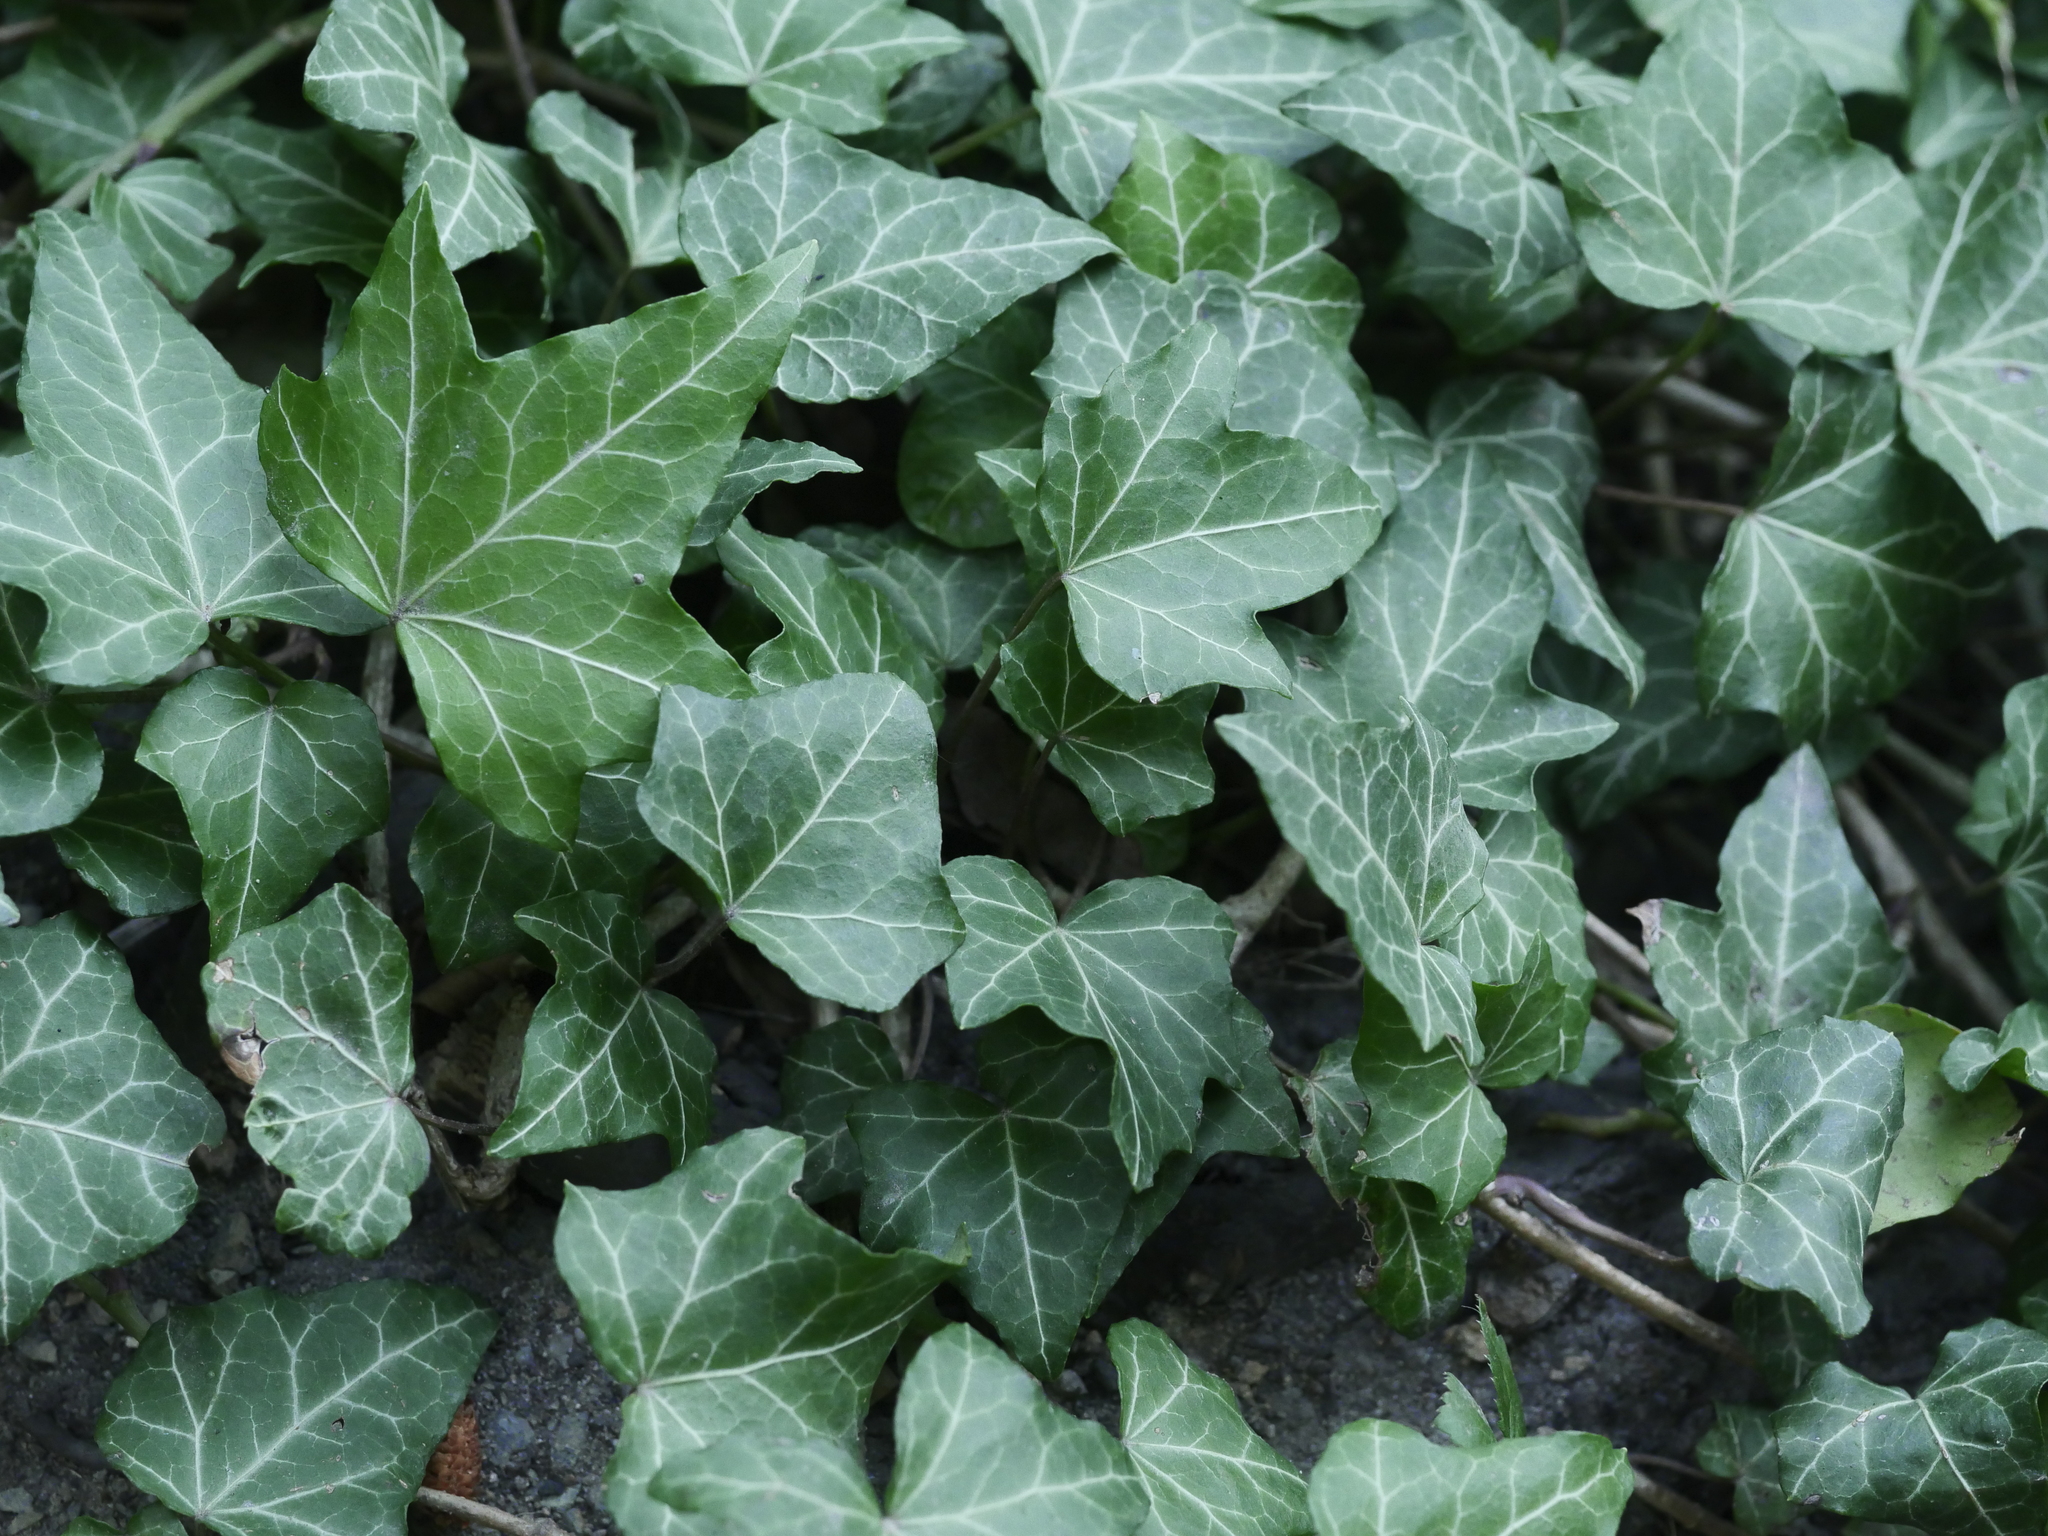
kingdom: Plantae
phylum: Tracheophyta
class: Magnoliopsida
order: Apiales
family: Araliaceae
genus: Hedera
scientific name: Hedera helix
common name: Ivy
